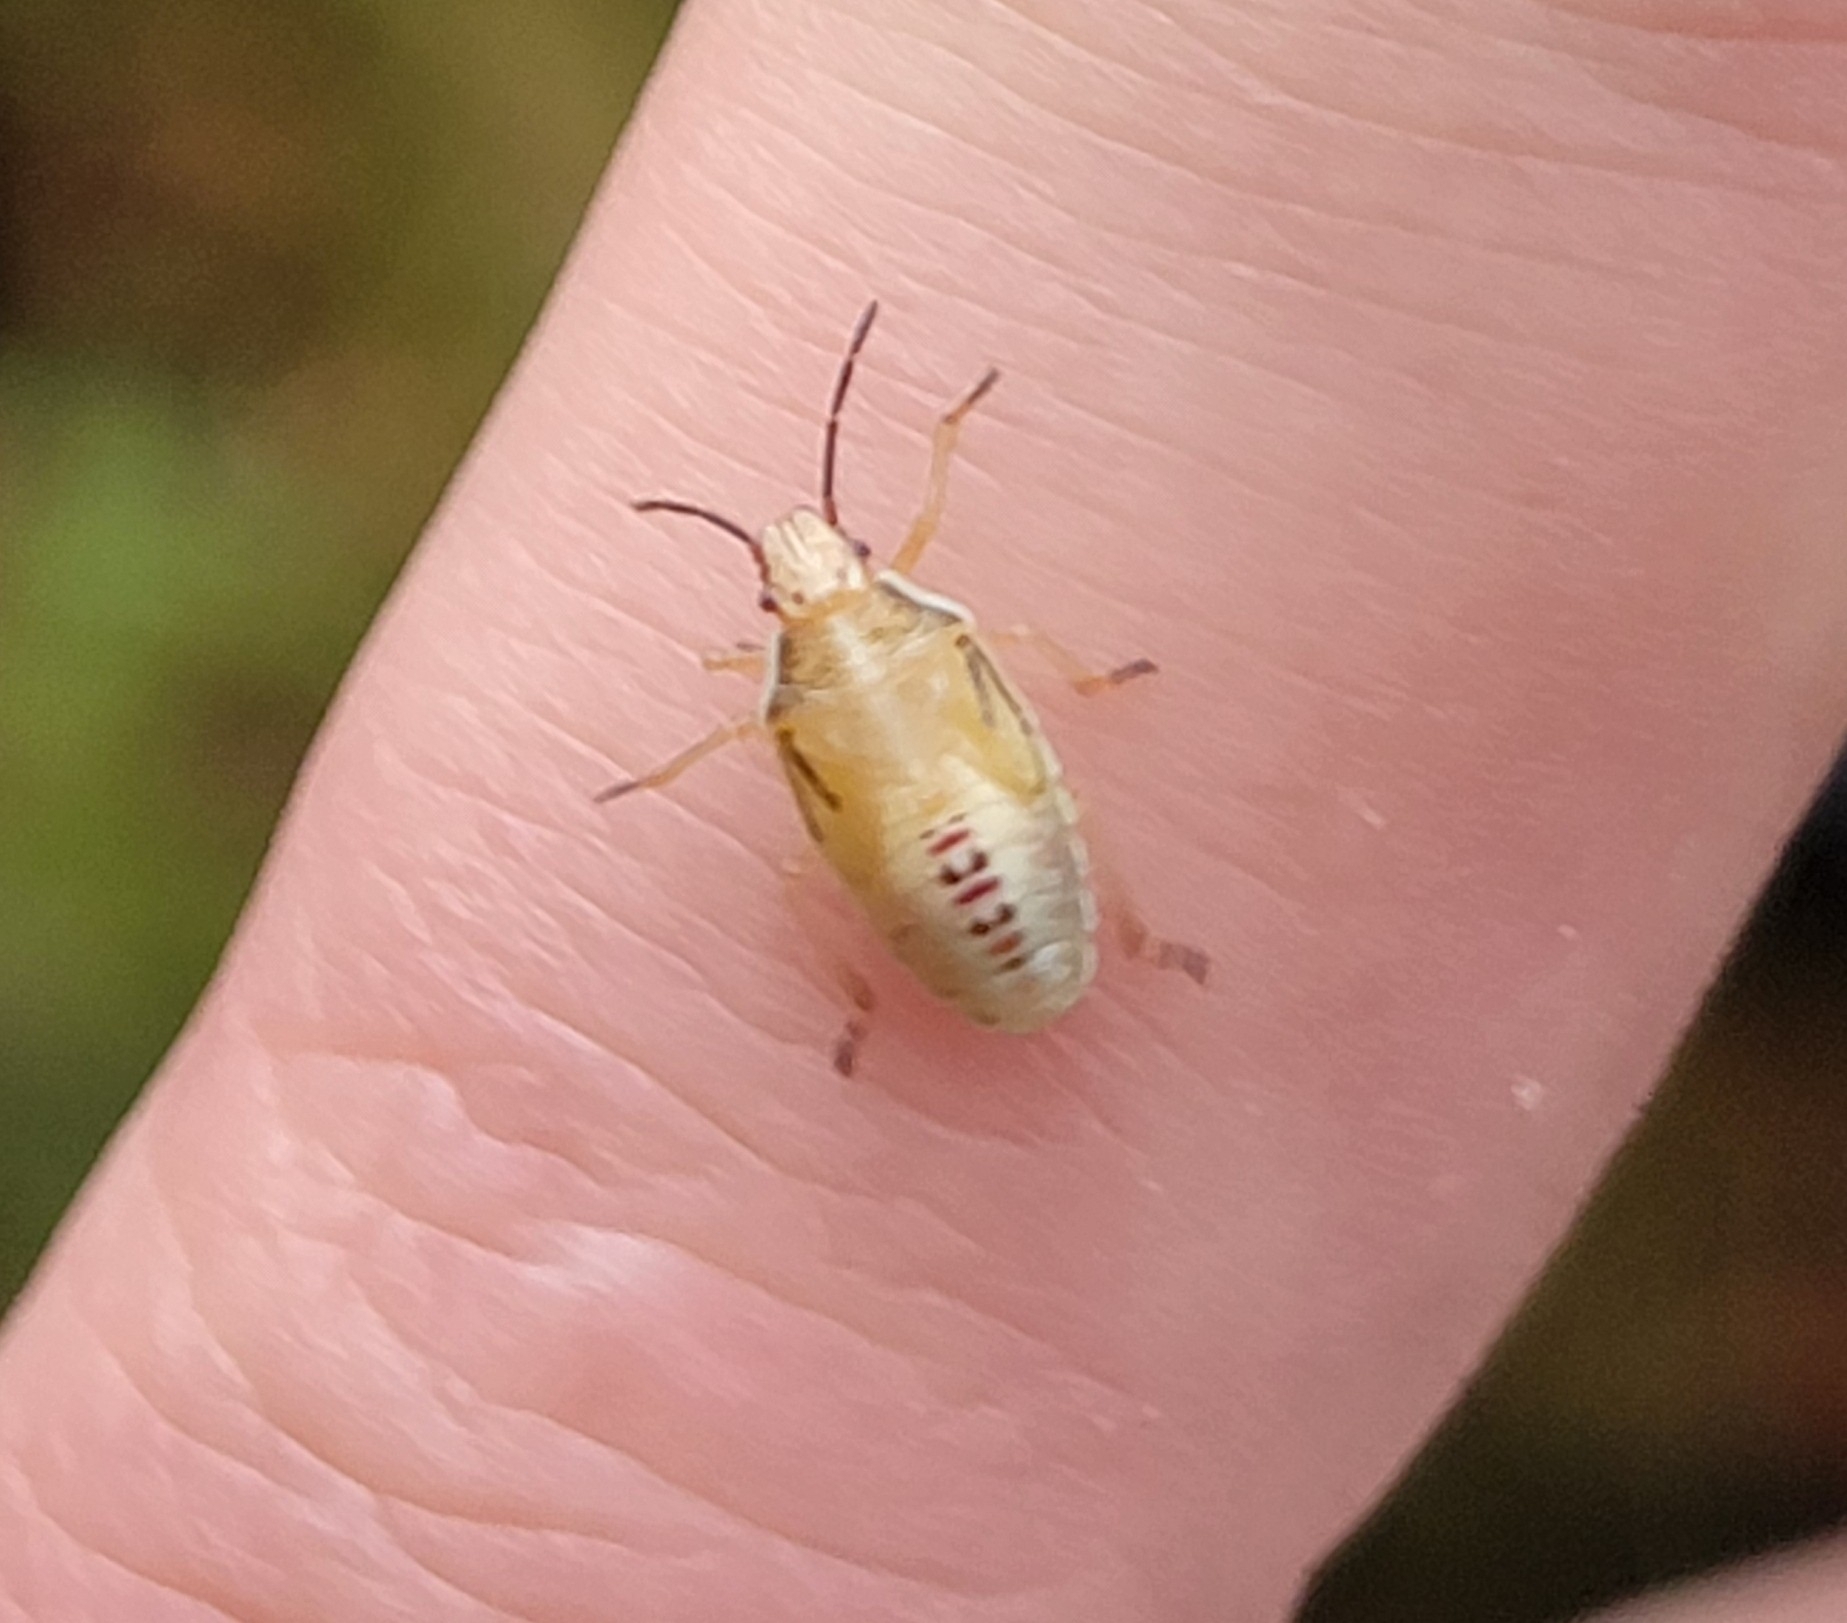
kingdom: Animalia
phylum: Arthropoda
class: Insecta
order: Hemiptera
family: Pentatomidae
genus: Oebalus
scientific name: Oebalus pugnax
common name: Rice stink bug
